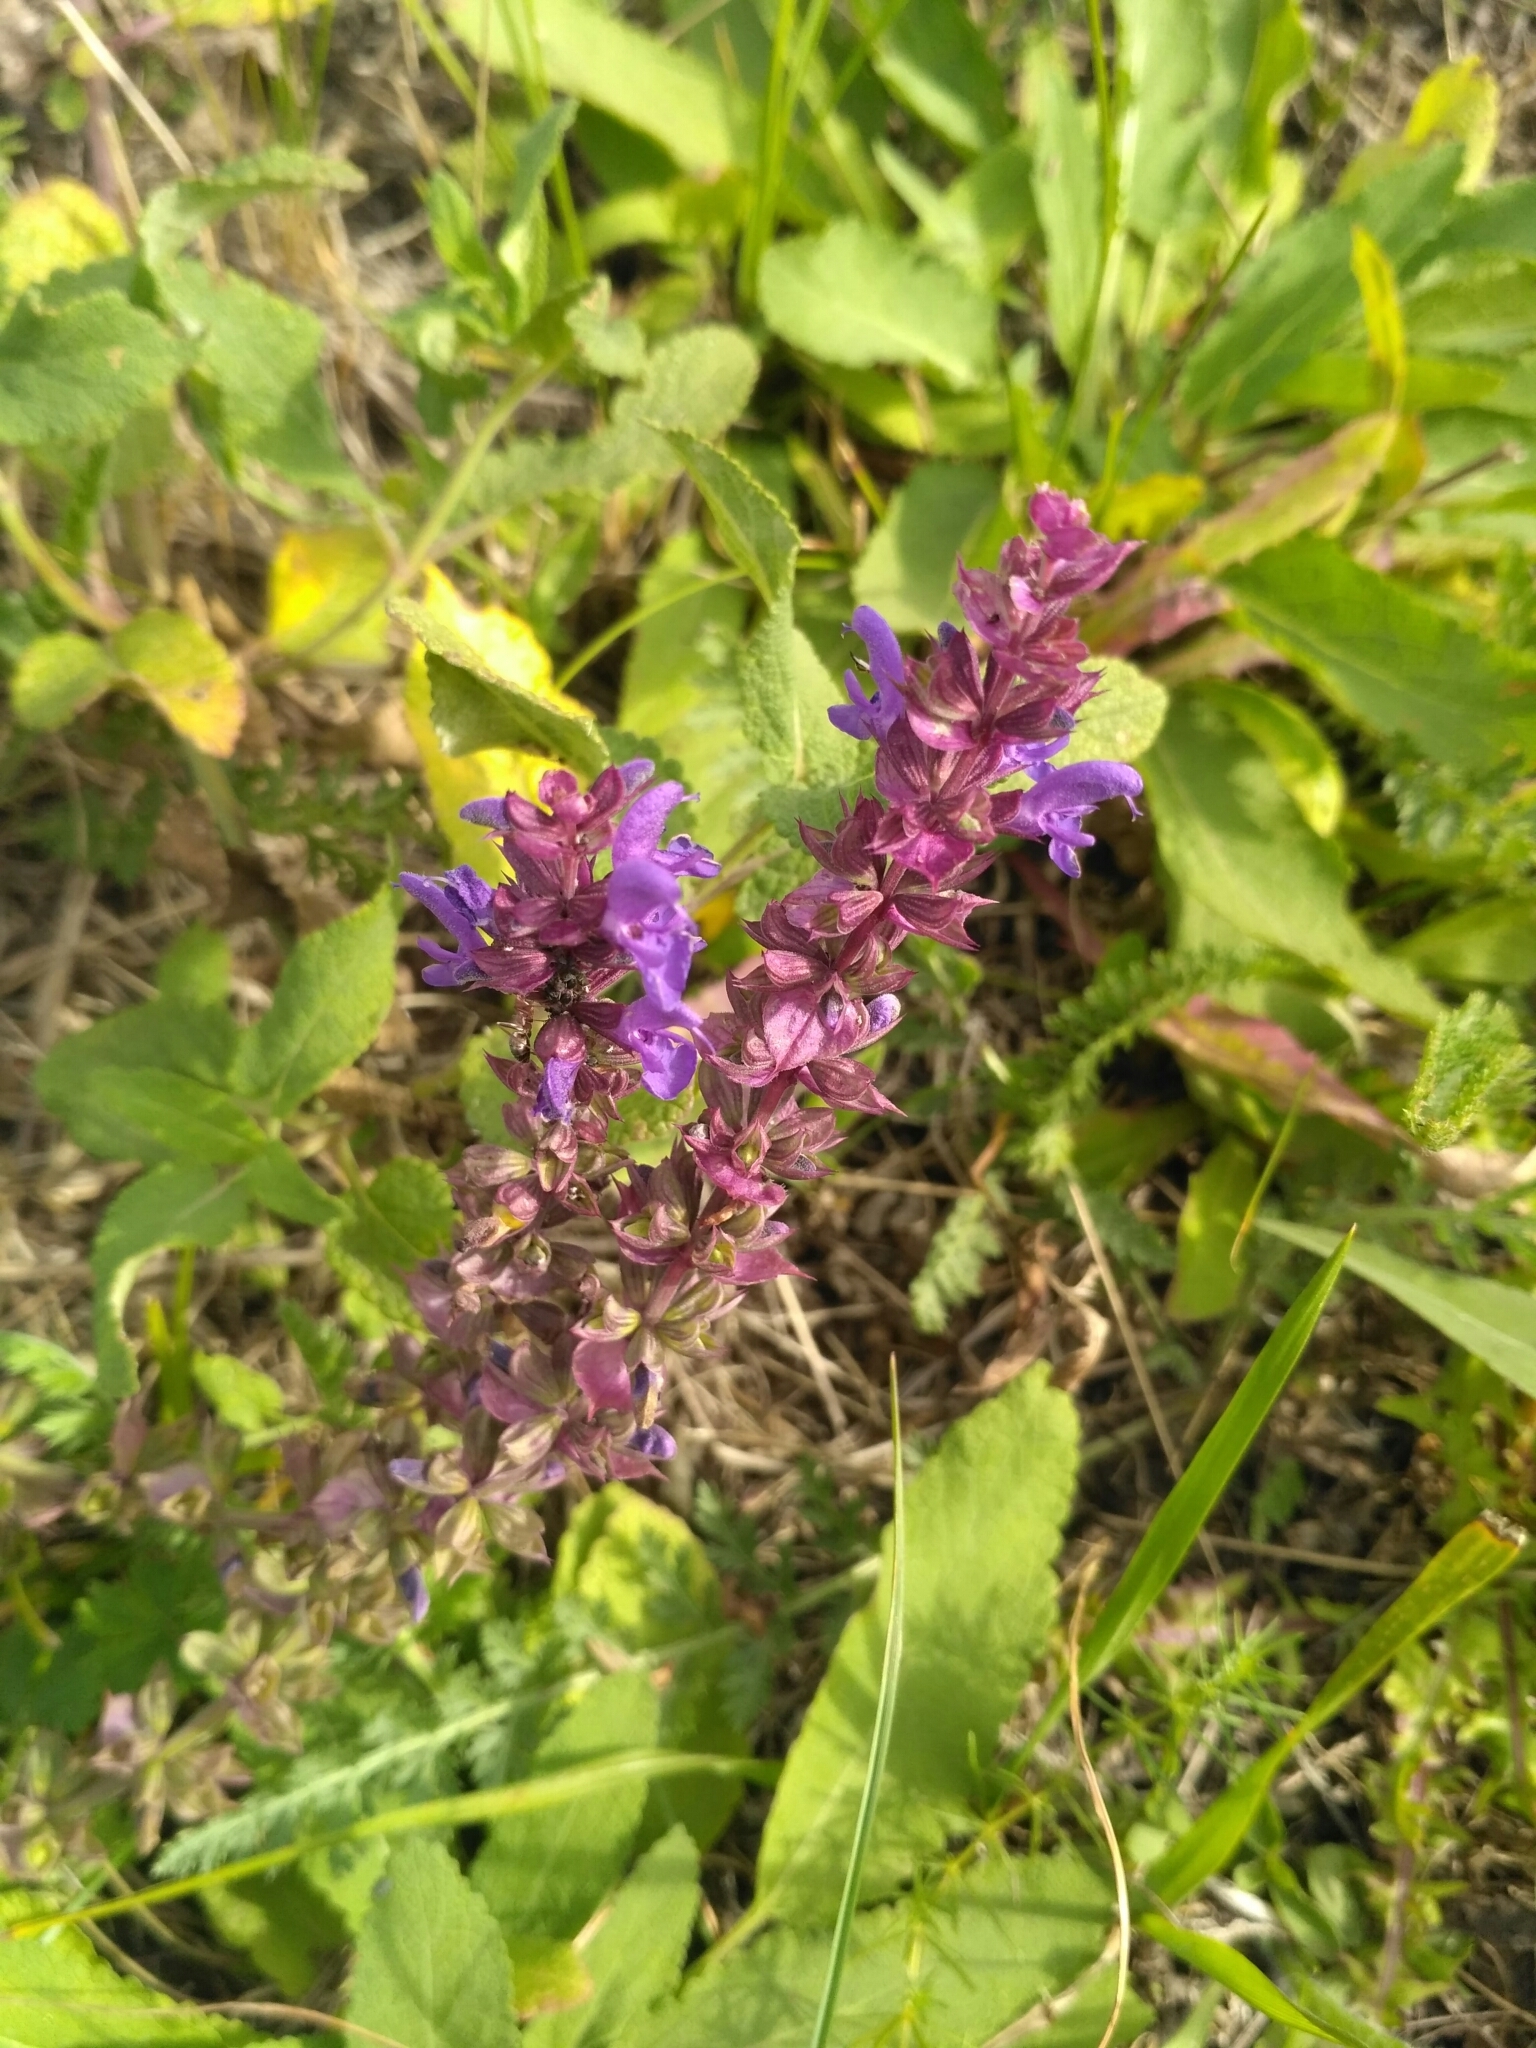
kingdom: Plantae
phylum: Tracheophyta
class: Magnoliopsida
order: Lamiales
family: Lamiaceae
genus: Salvia
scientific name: Salvia nemorosa
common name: Balkan clary
